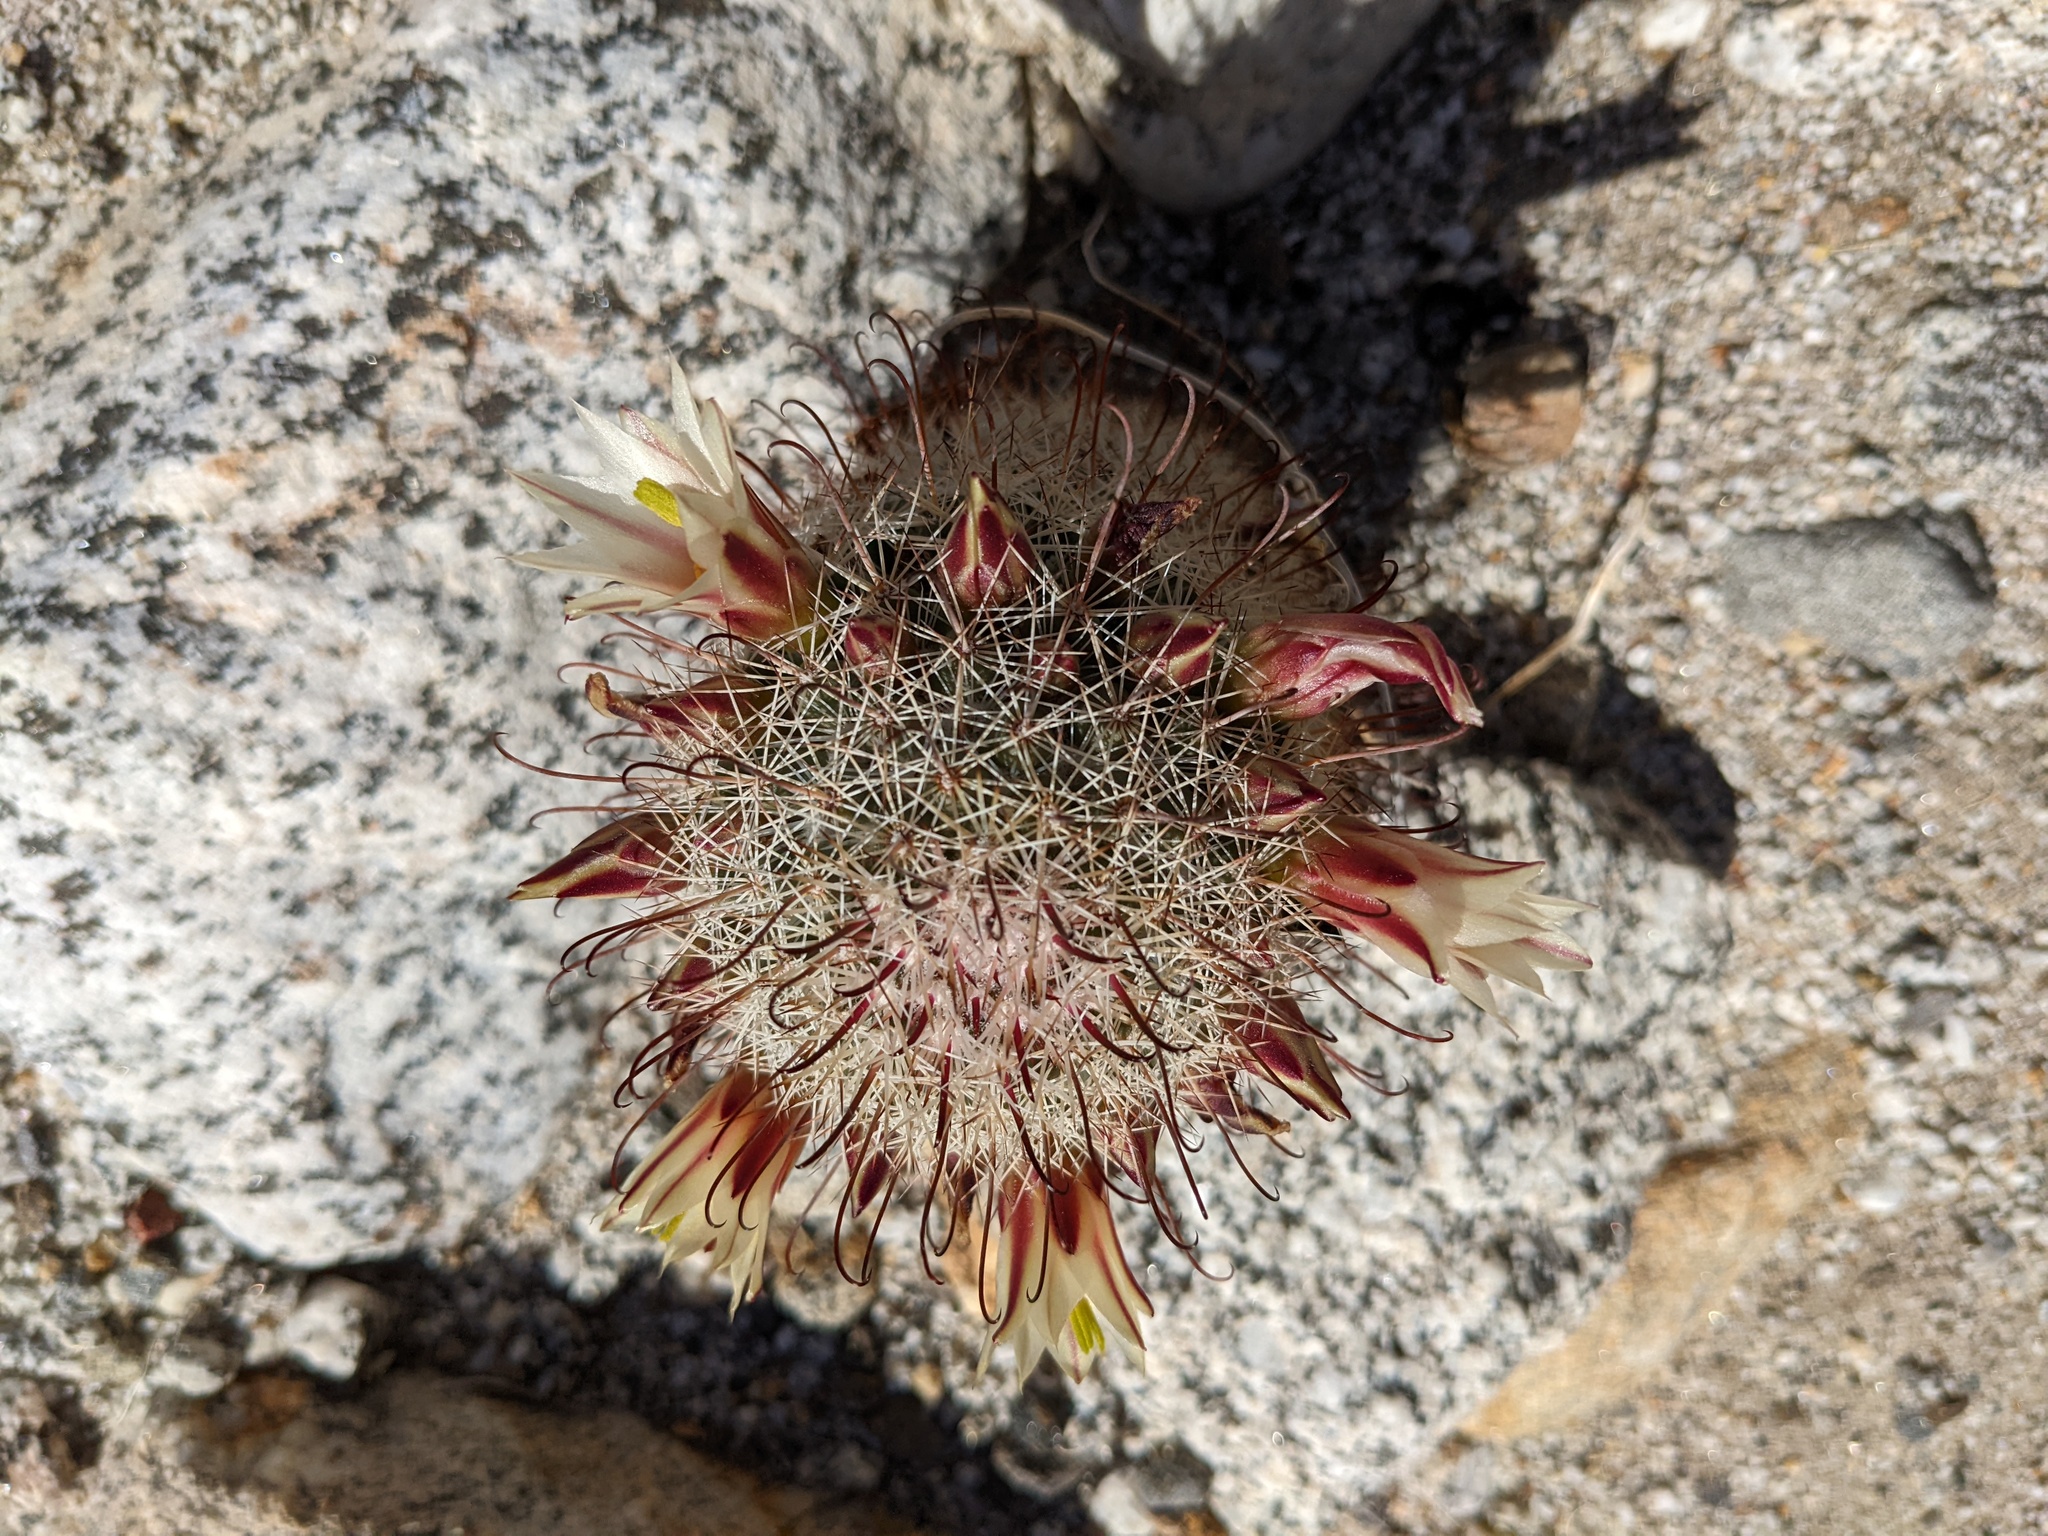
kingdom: Plantae
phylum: Tracheophyta
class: Magnoliopsida
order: Caryophyllales
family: Cactaceae
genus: Cochemiea
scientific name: Cochemiea dioica
